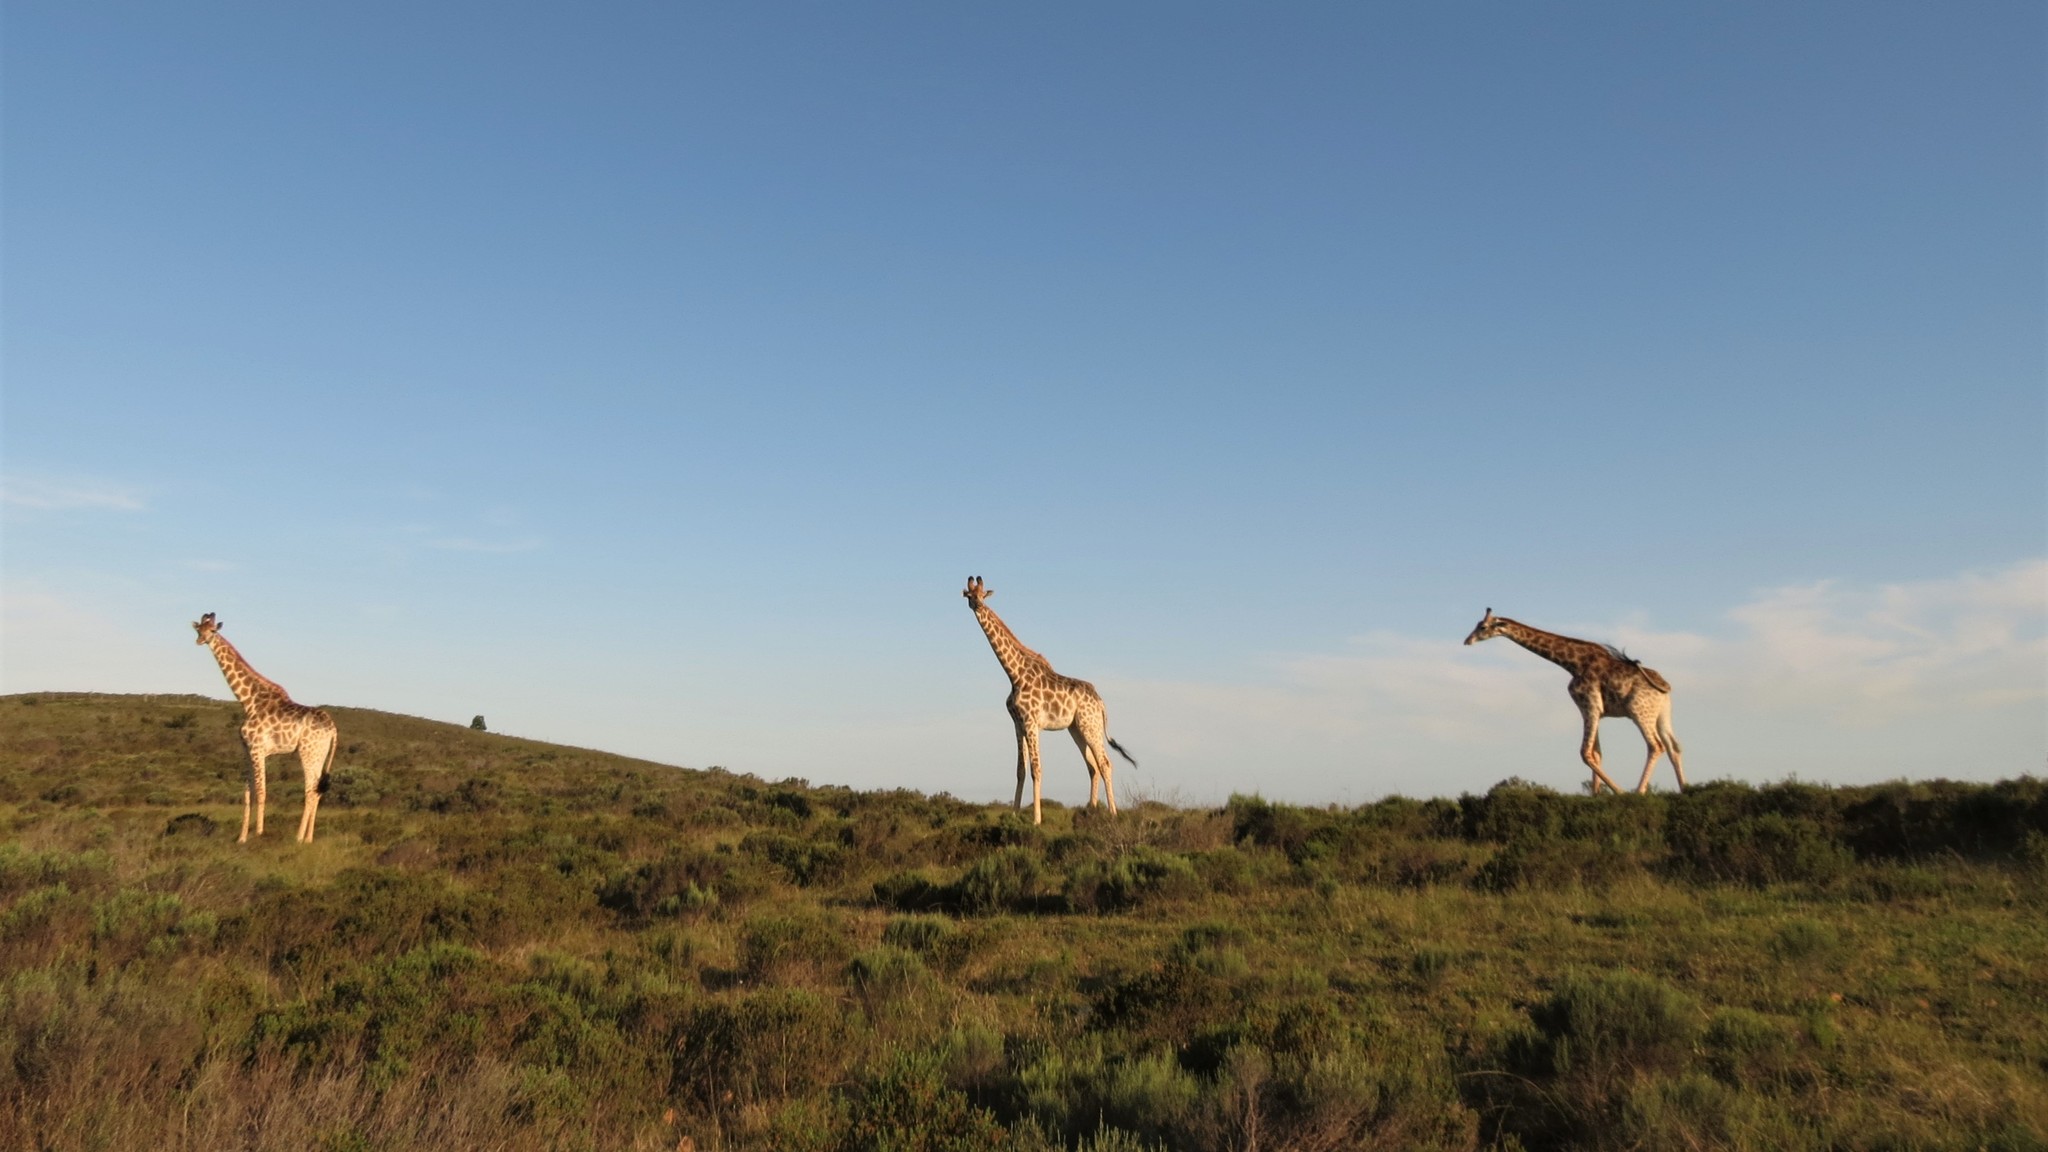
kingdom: Animalia
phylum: Chordata
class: Mammalia
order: Artiodactyla
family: Giraffidae
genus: Giraffa
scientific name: Giraffa giraffa
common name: Southern giraffe
